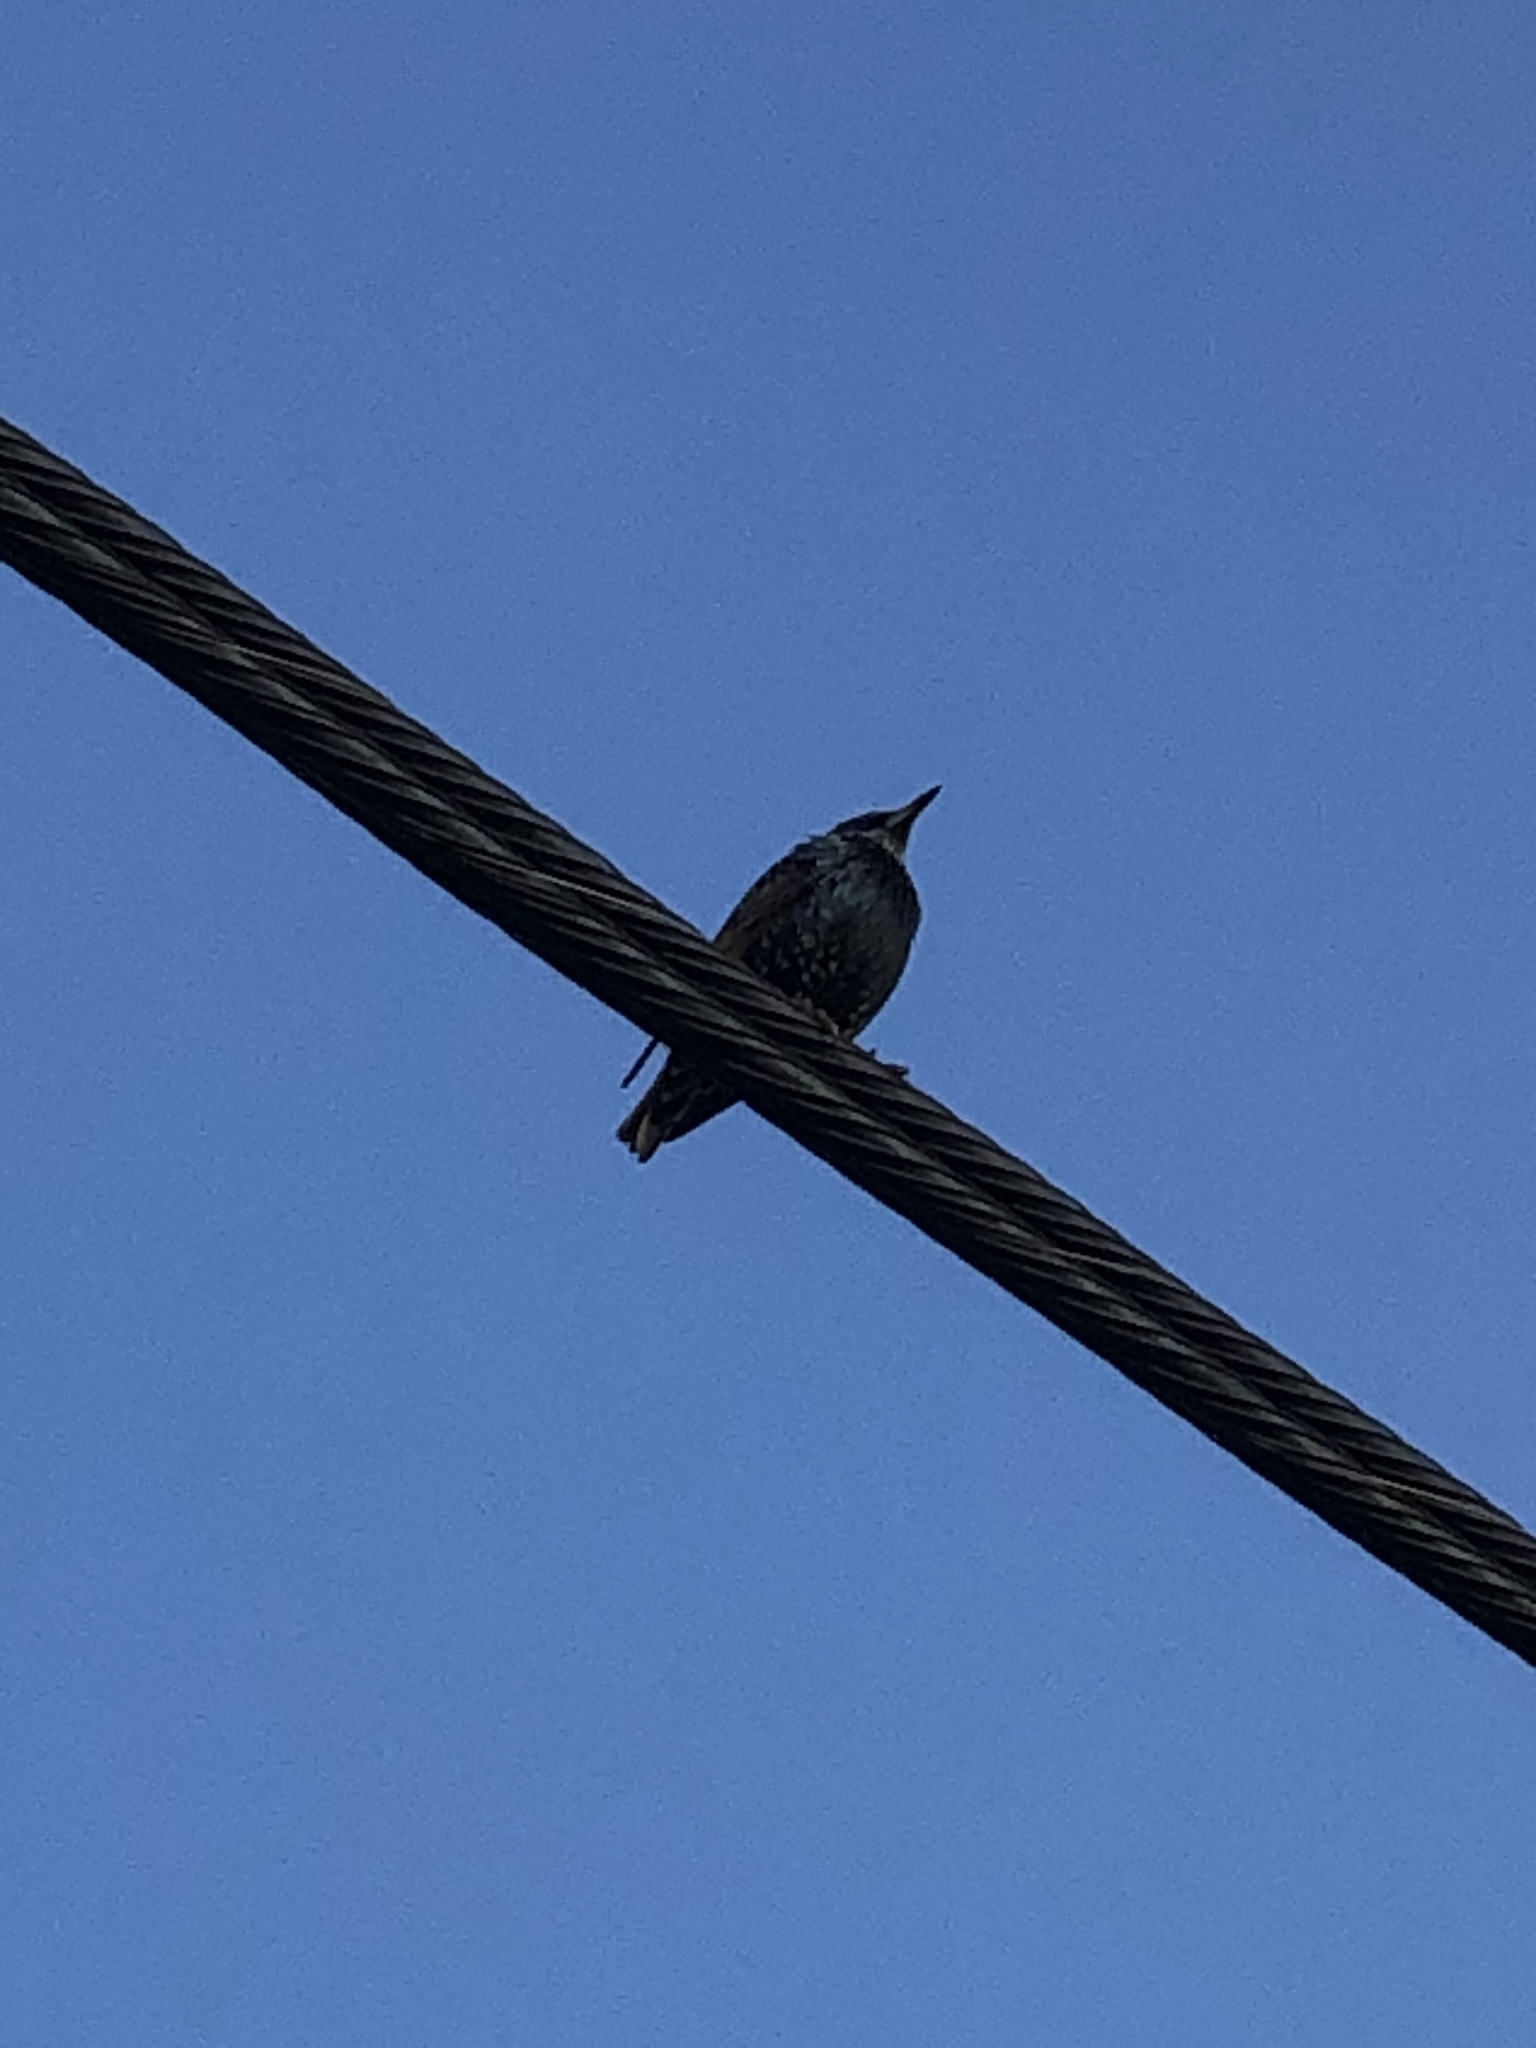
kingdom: Animalia
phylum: Chordata
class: Aves
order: Passeriformes
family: Sturnidae
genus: Sturnus
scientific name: Sturnus vulgaris
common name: Common starling
